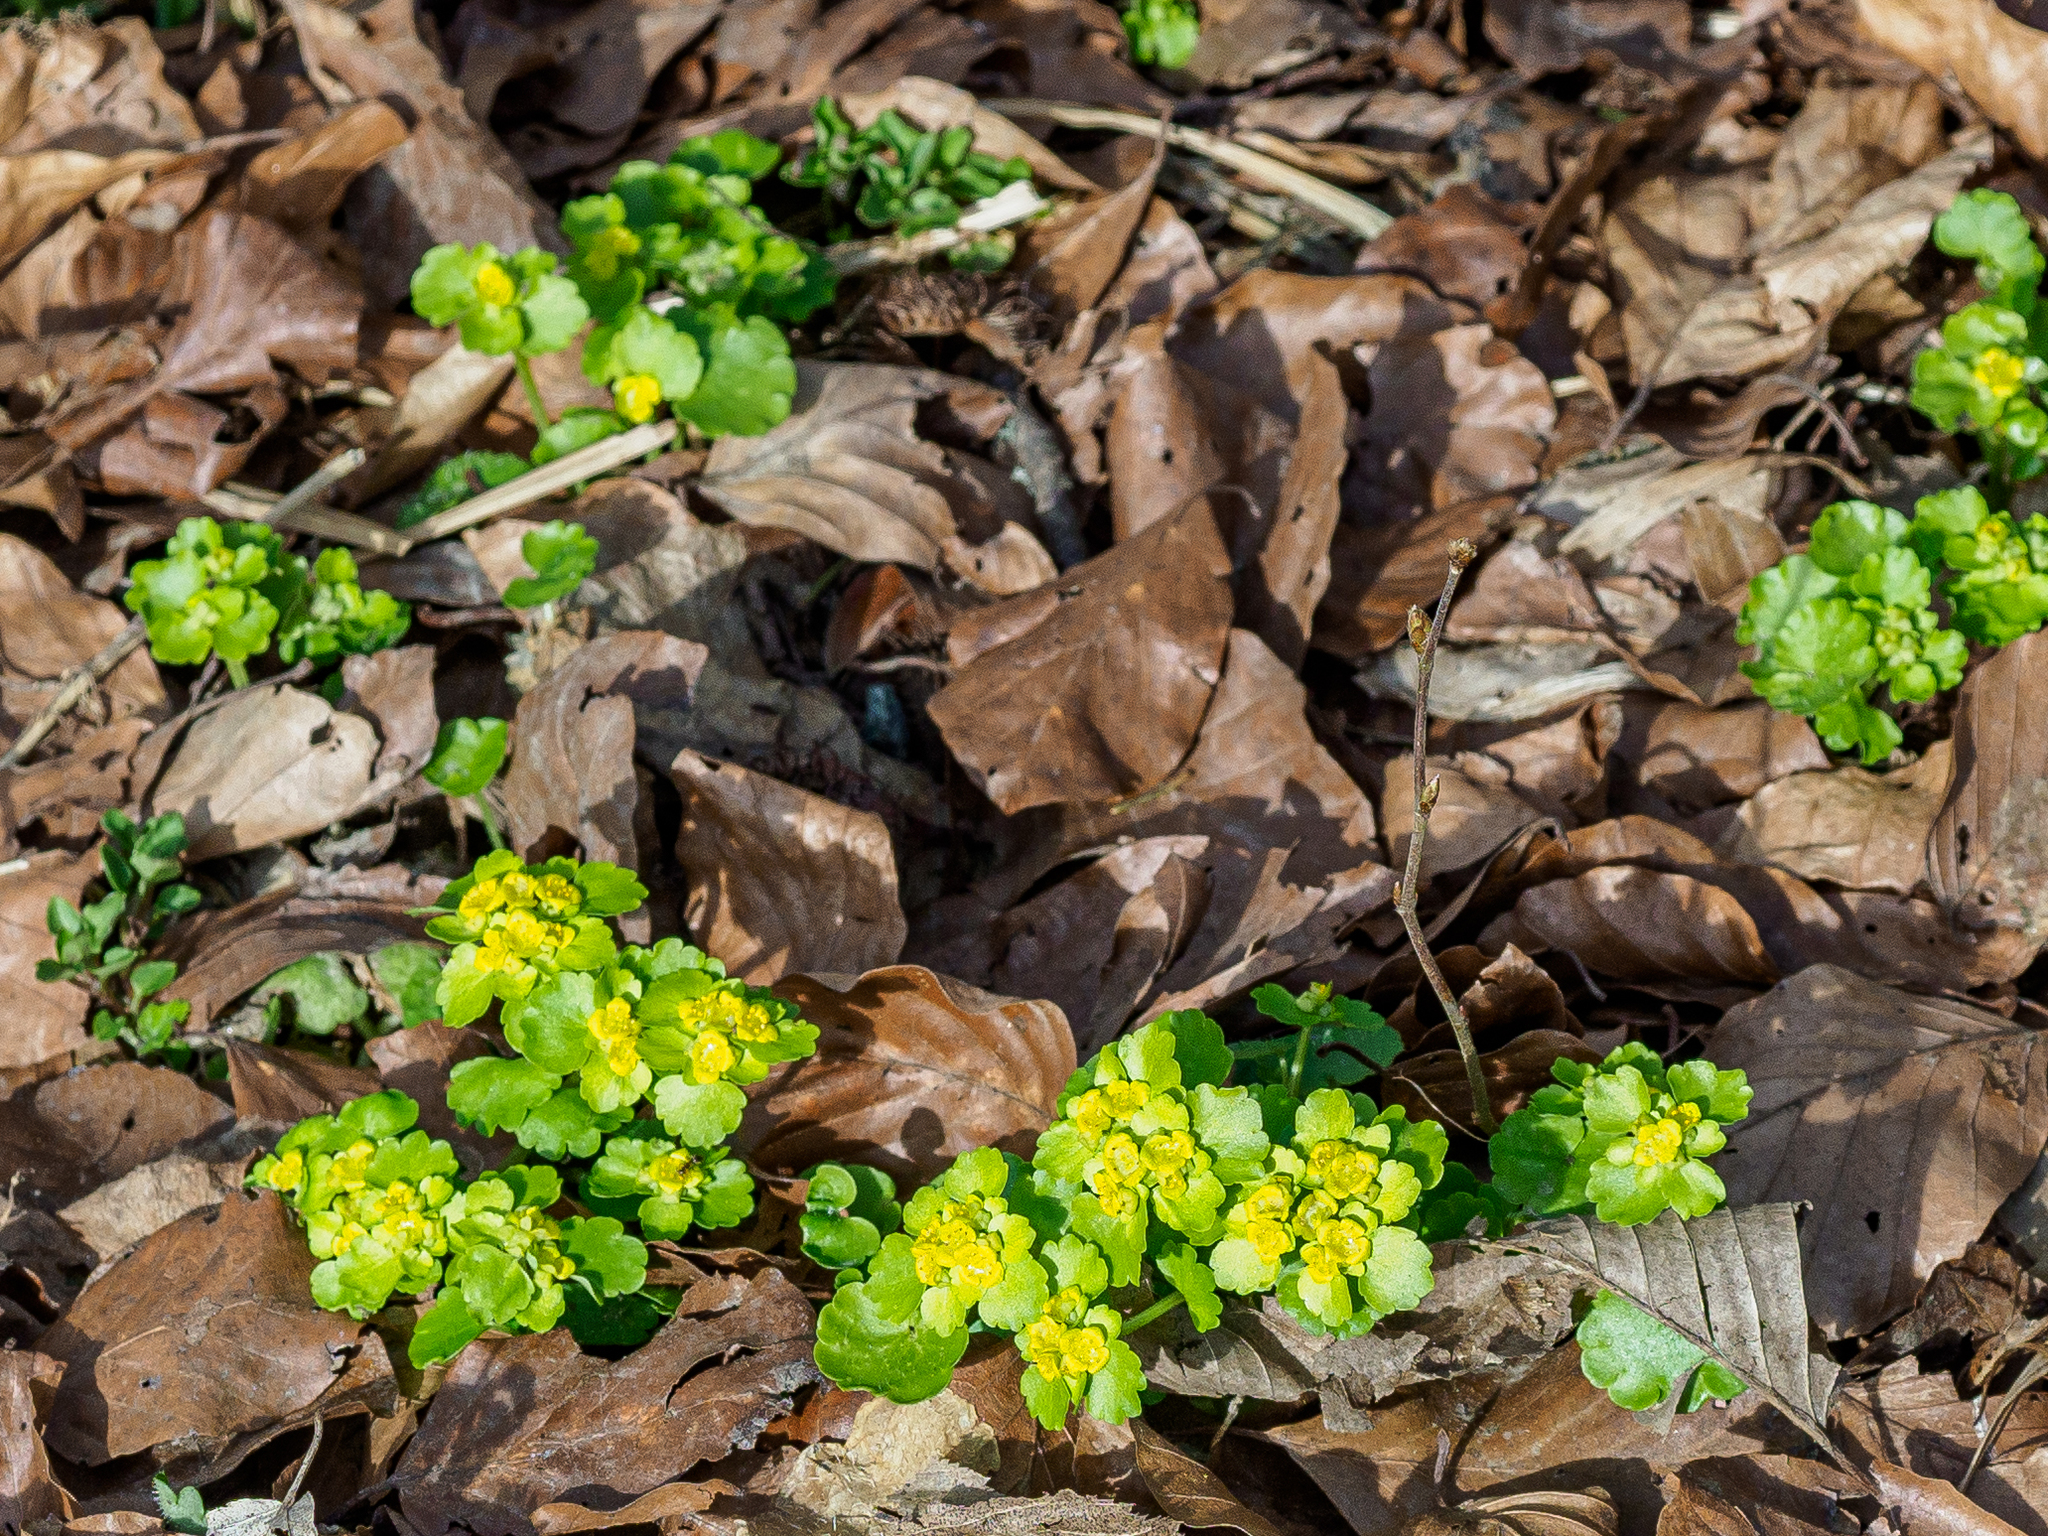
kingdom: Plantae
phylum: Tracheophyta
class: Magnoliopsida
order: Saxifragales
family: Saxifragaceae
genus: Chrysosplenium
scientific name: Chrysosplenium alternifolium
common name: Alternate-leaved golden-saxifrage
